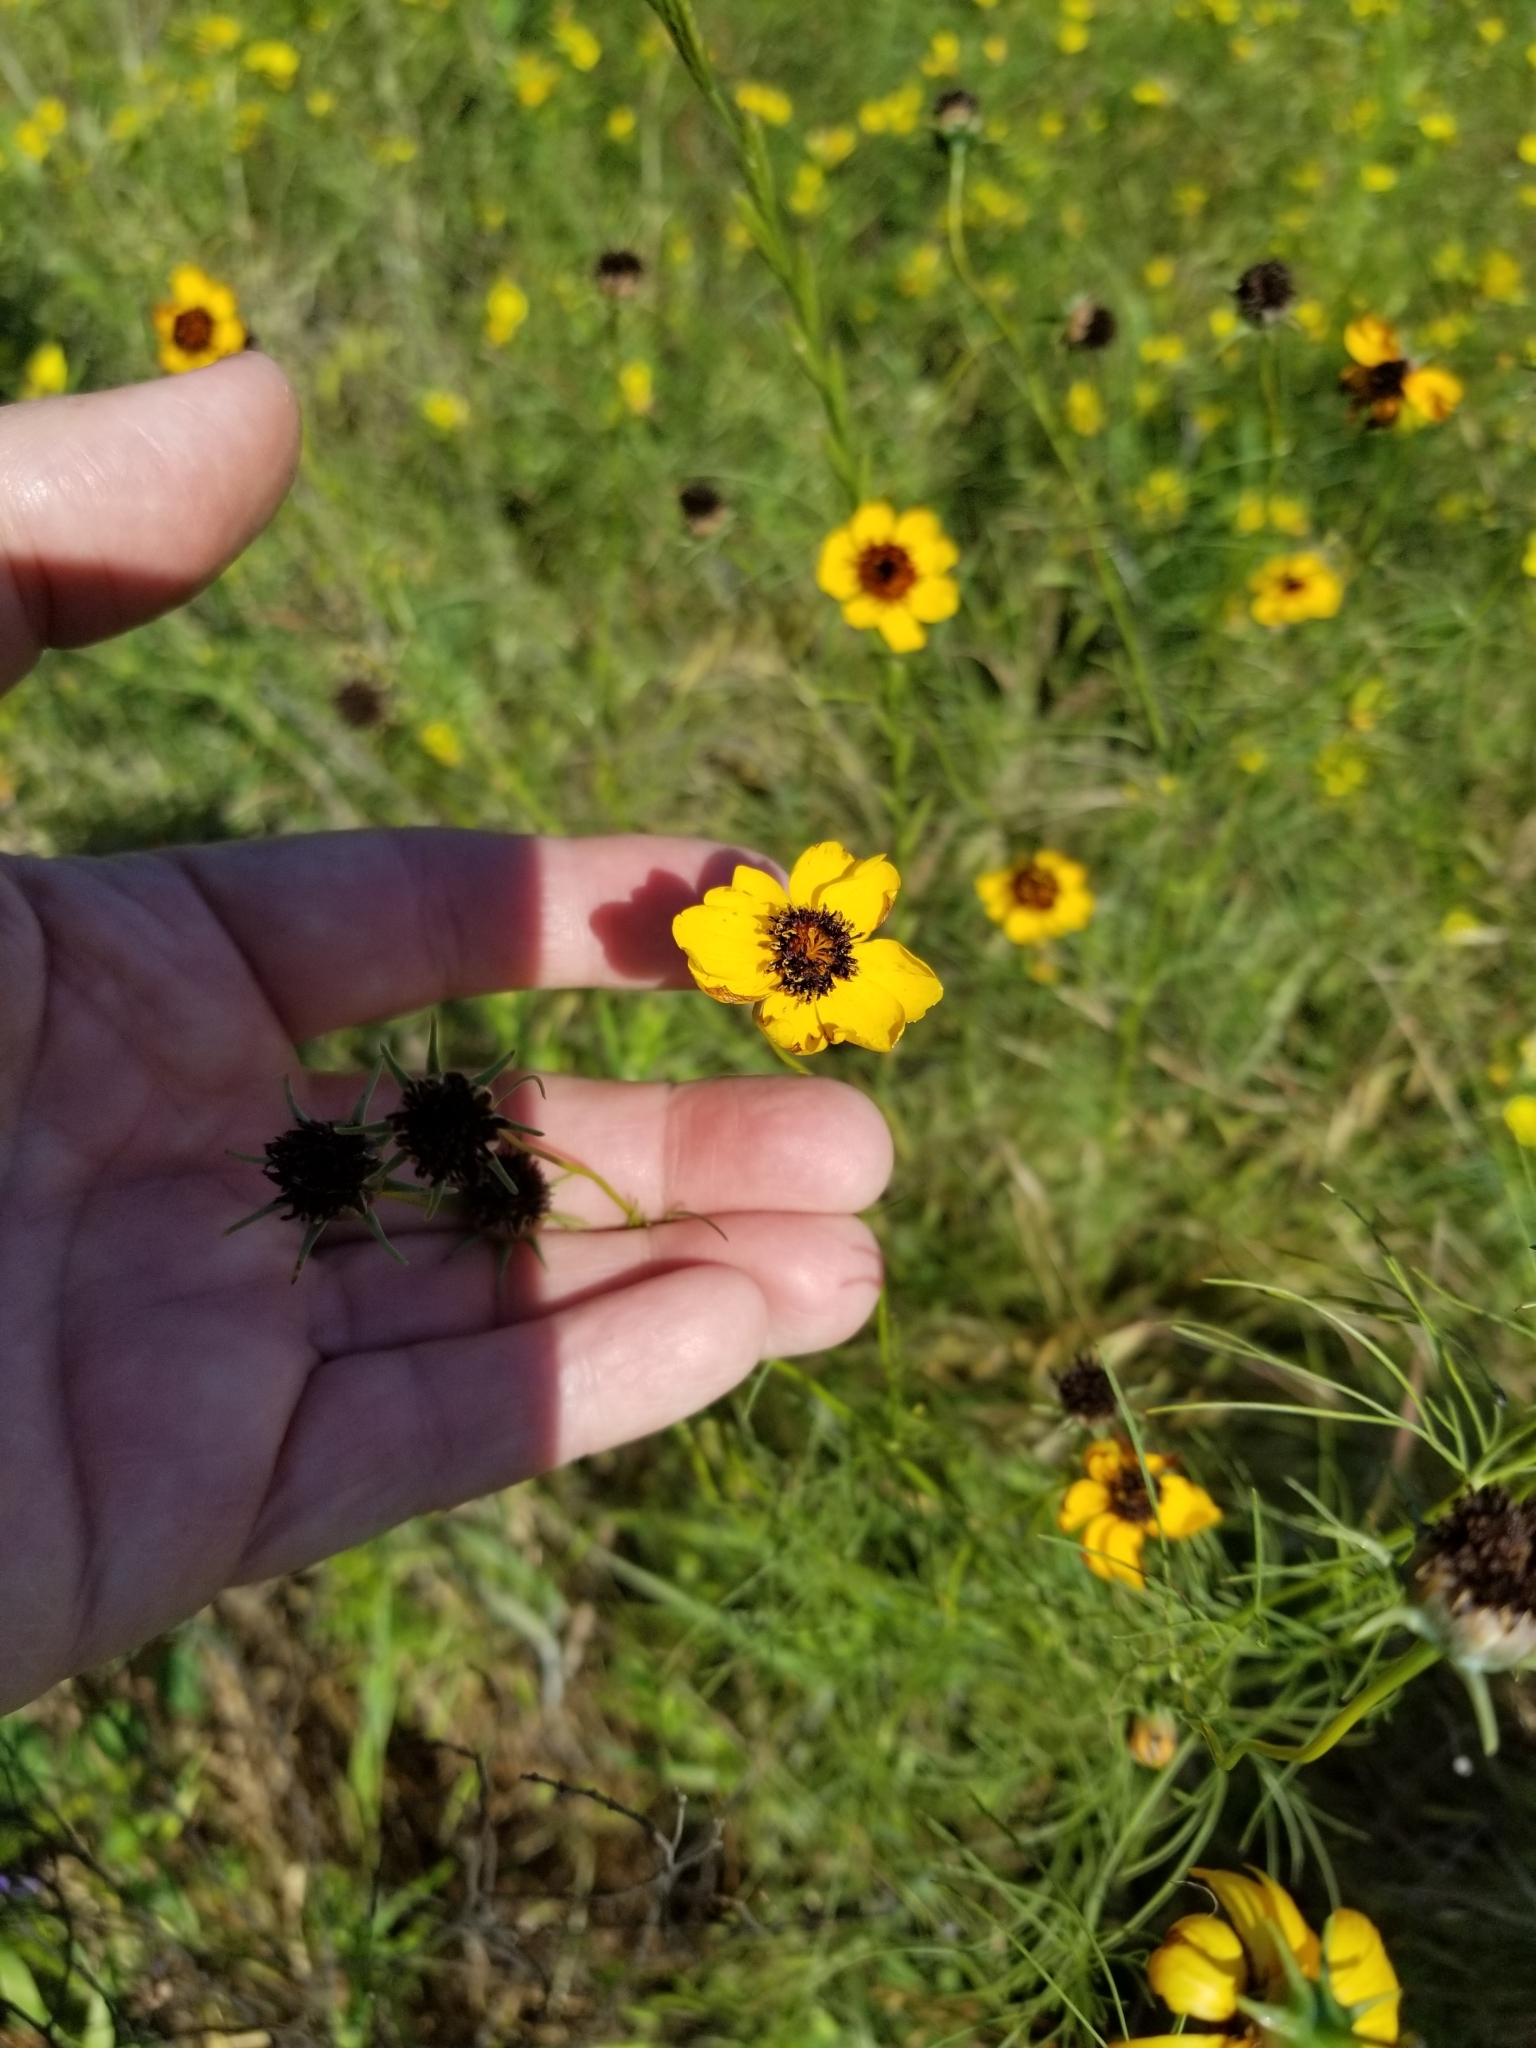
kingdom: Plantae
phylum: Tracheophyta
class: Magnoliopsida
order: Asterales
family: Asteraceae
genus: Thelesperma
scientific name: Thelesperma filifolium
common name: Stiff greenthread
